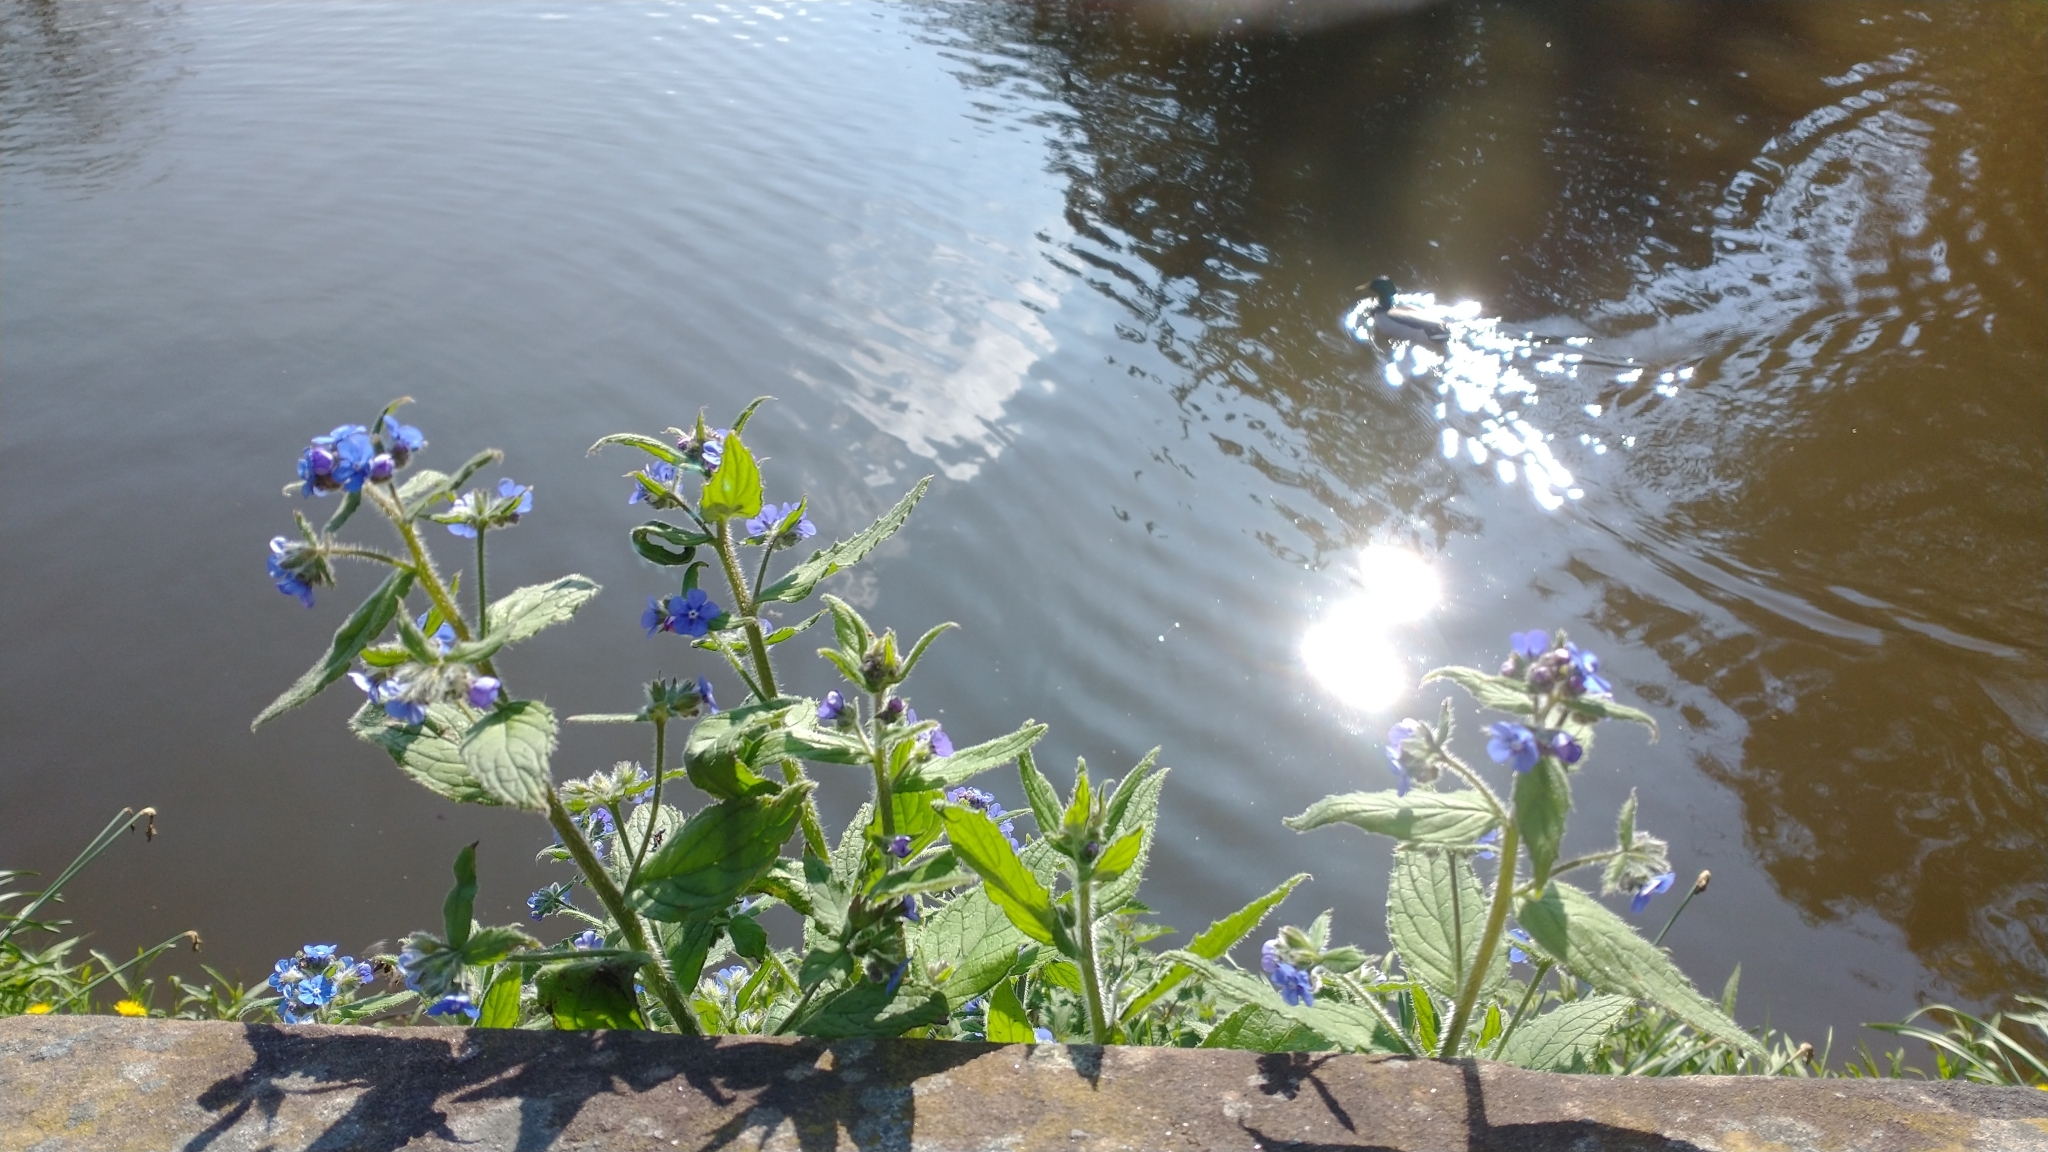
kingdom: Plantae
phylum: Tracheophyta
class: Magnoliopsida
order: Boraginales
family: Boraginaceae
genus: Pentaglottis
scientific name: Pentaglottis sempervirens
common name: Green alkanet
